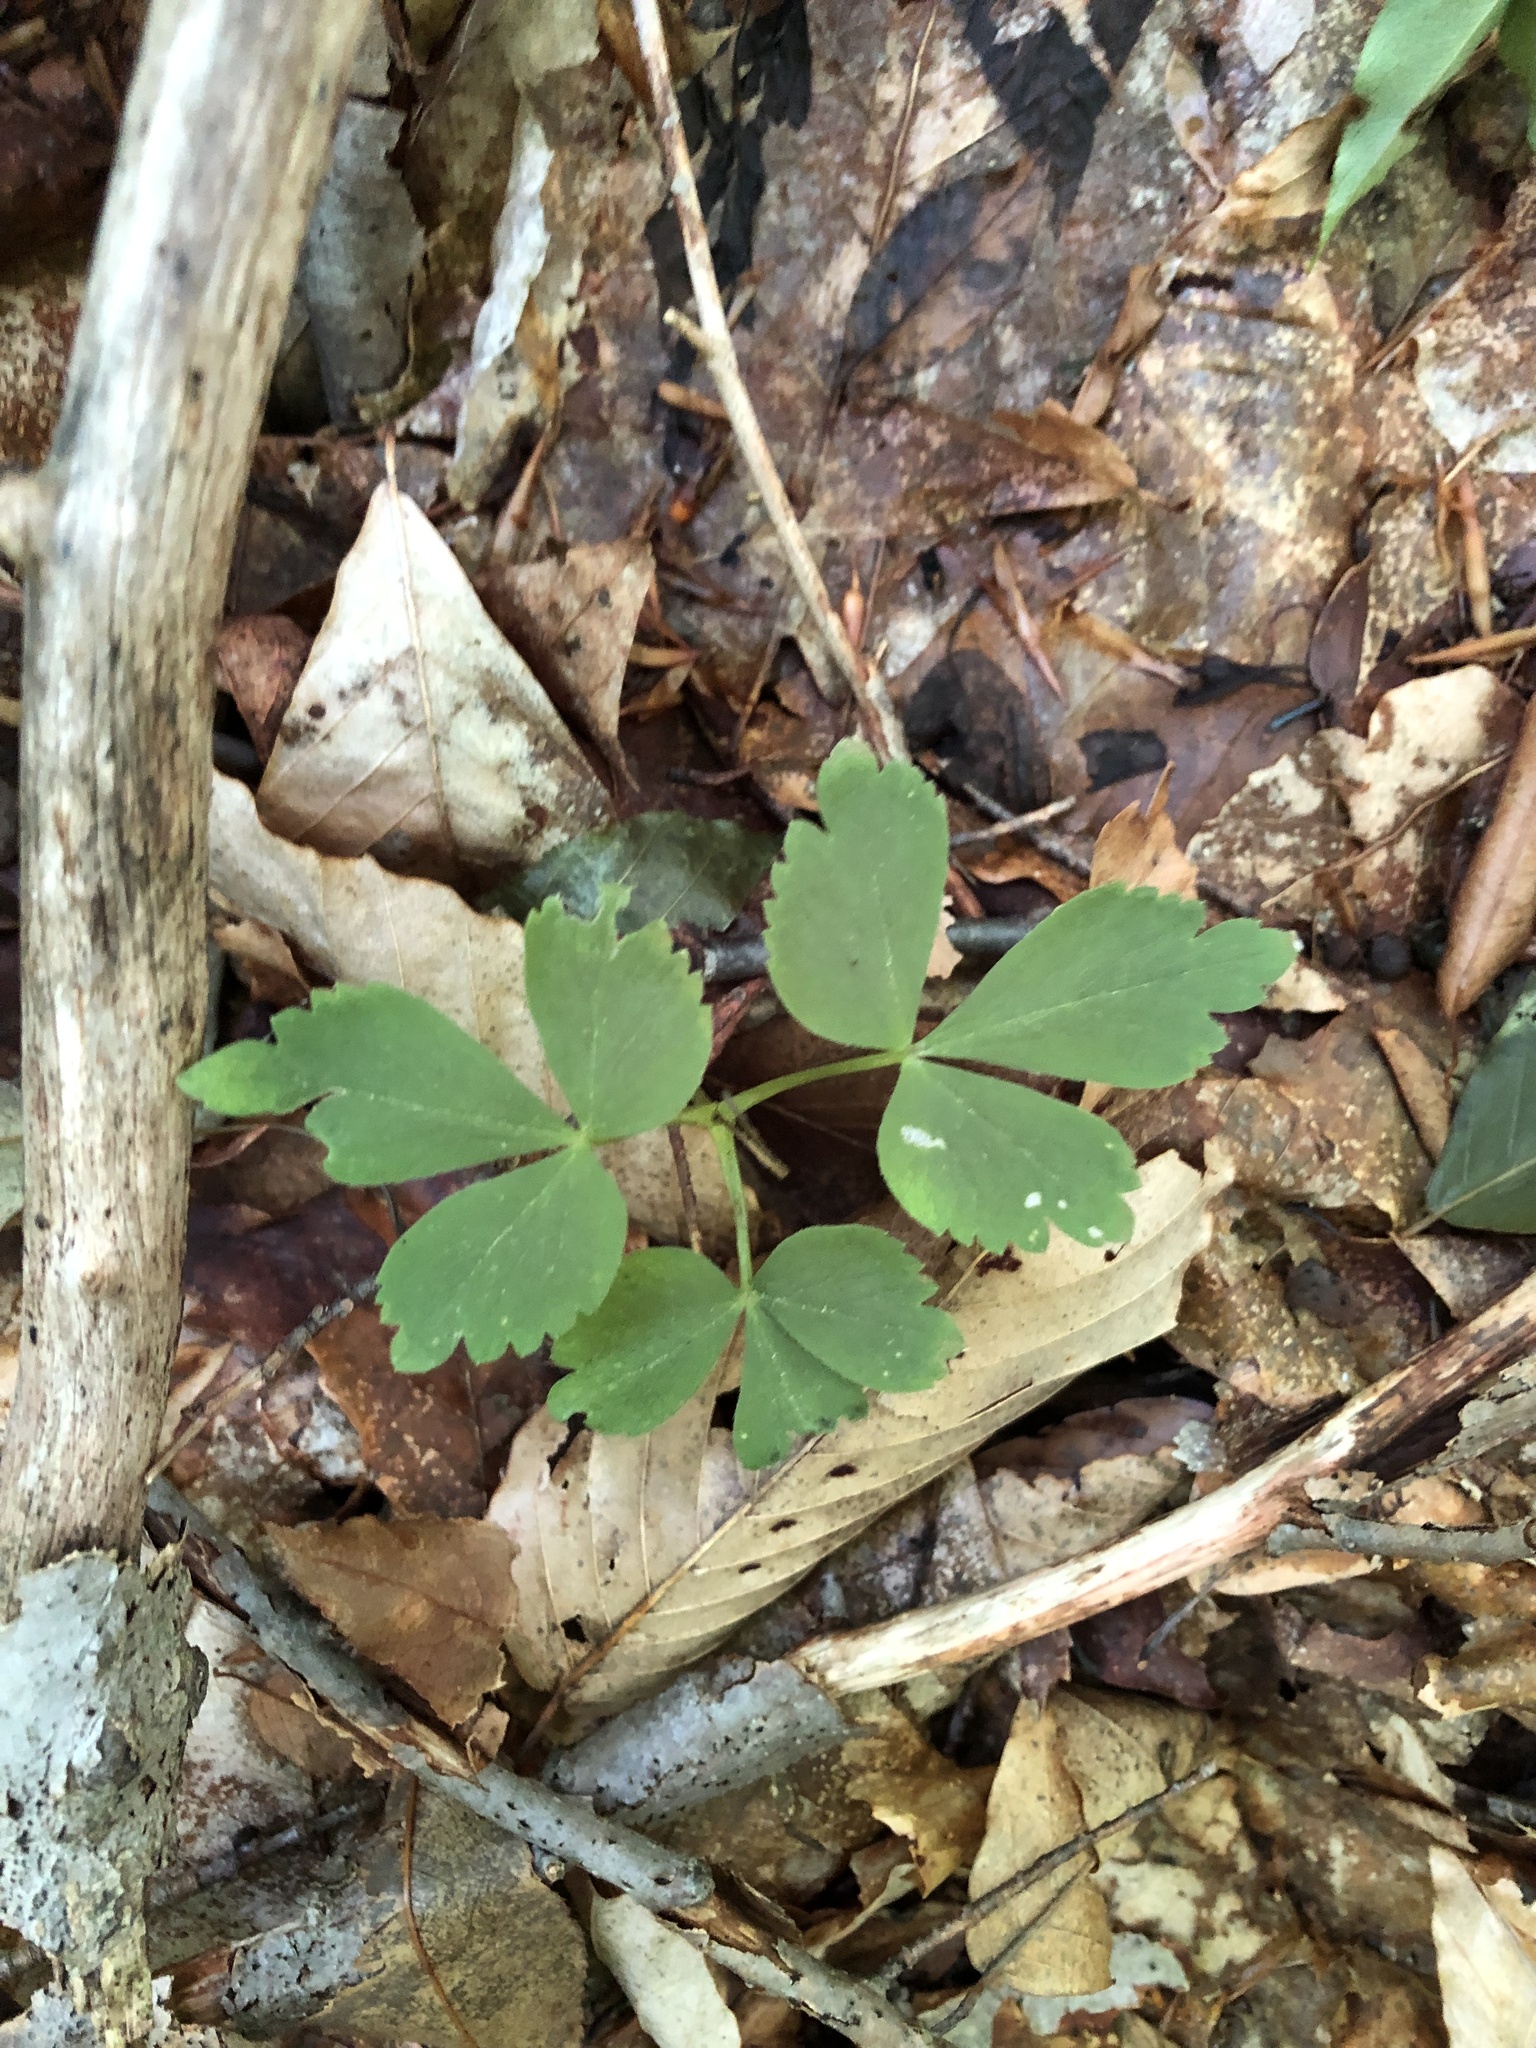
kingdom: Plantae
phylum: Tracheophyta
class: Magnoliopsida
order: Ranunculales
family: Ranunculaceae
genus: Anemone
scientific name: Anemone quinquefolia
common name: Wood anemone
